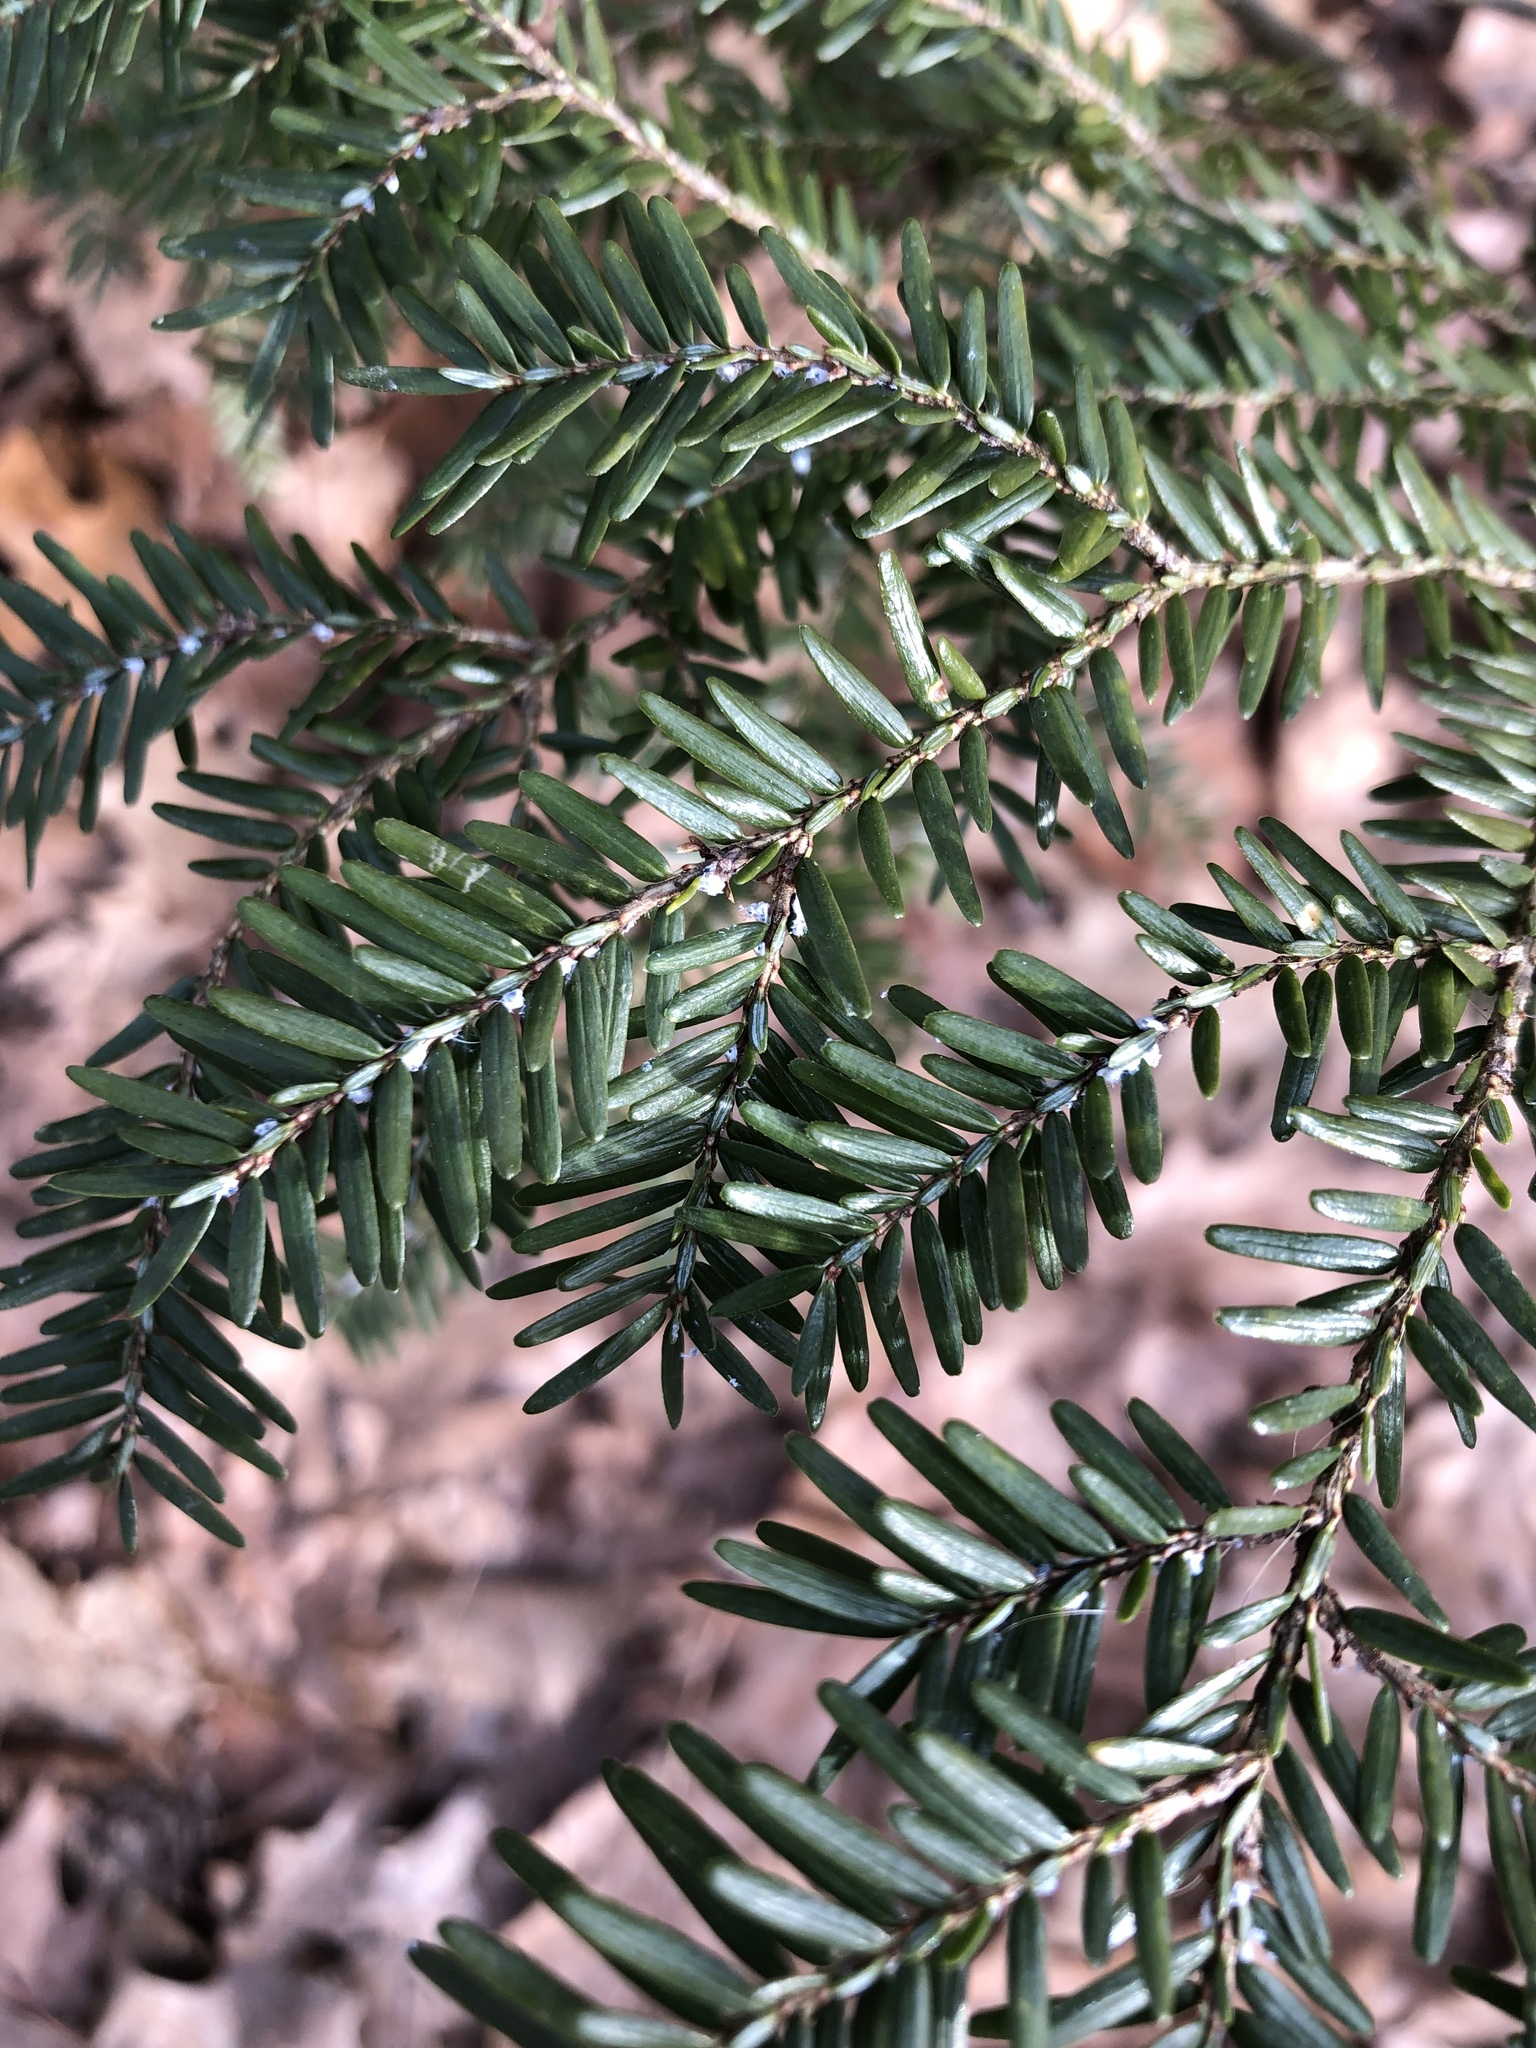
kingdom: Animalia
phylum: Arthropoda
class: Insecta
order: Hemiptera
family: Adelgidae
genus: Adelges
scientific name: Adelges tsugae
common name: Hemlock woolly adelgid
